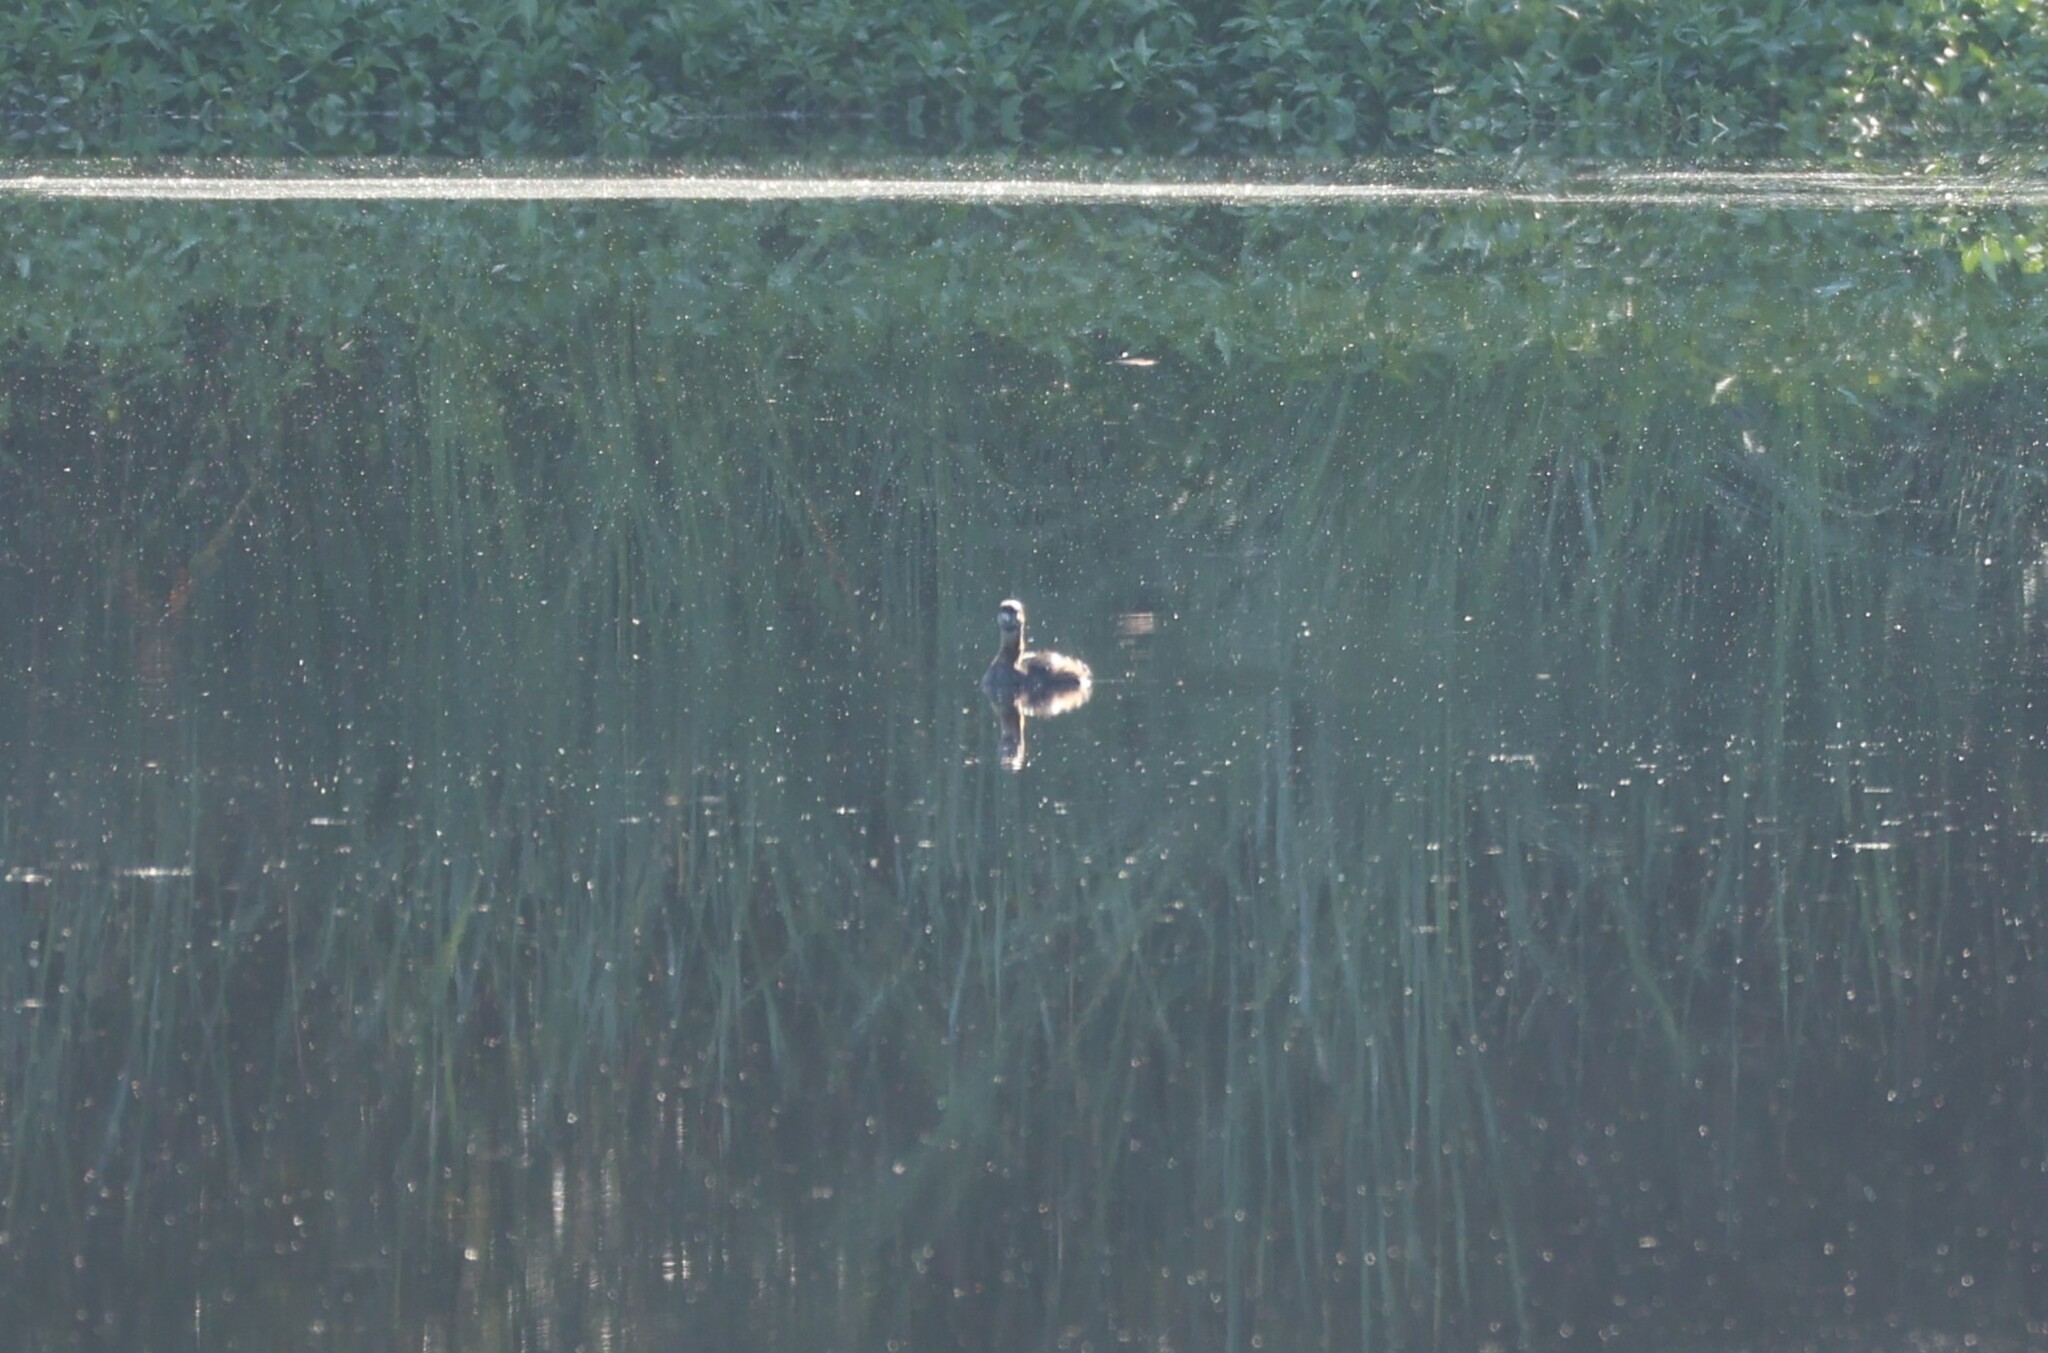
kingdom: Animalia
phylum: Chordata
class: Aves
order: Podicipediformes
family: Podicipedidae
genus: Podilymbus
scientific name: Podilymbus podiceps
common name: Pied-billed grebe
